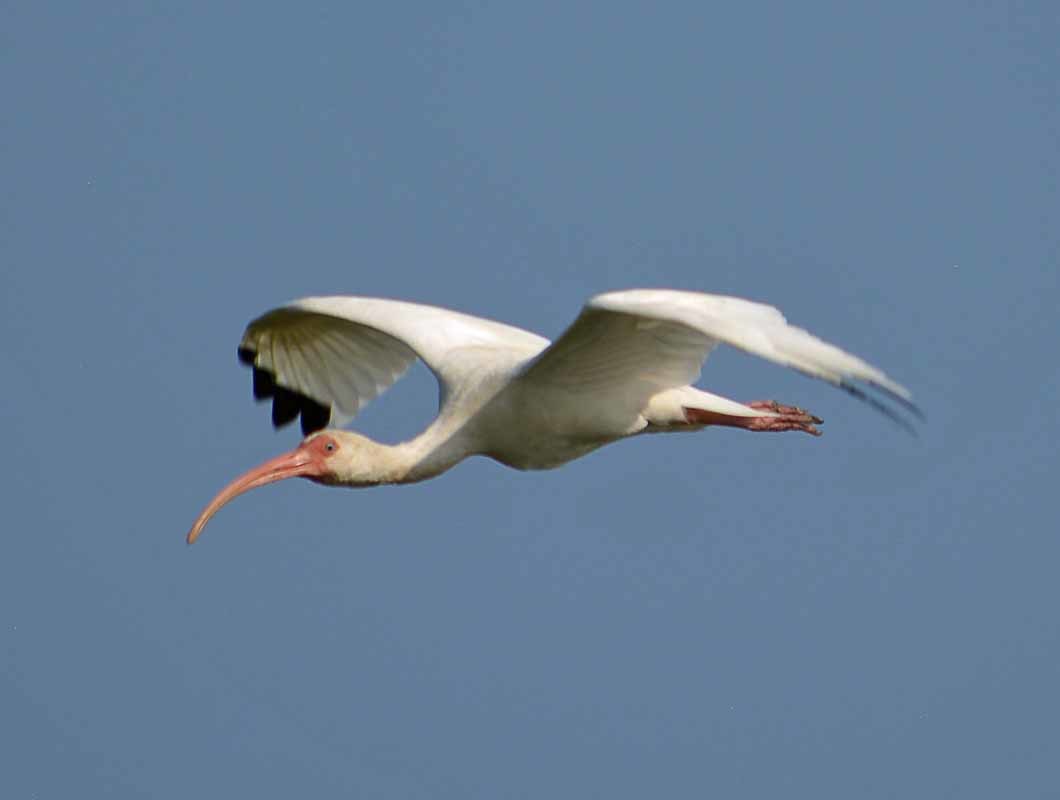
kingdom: Animalia
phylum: Chordata
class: Aves
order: Pelecaniformes
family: Threskiornithidae
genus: Eudocimus
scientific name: Eudocimus albus
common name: White ibis
